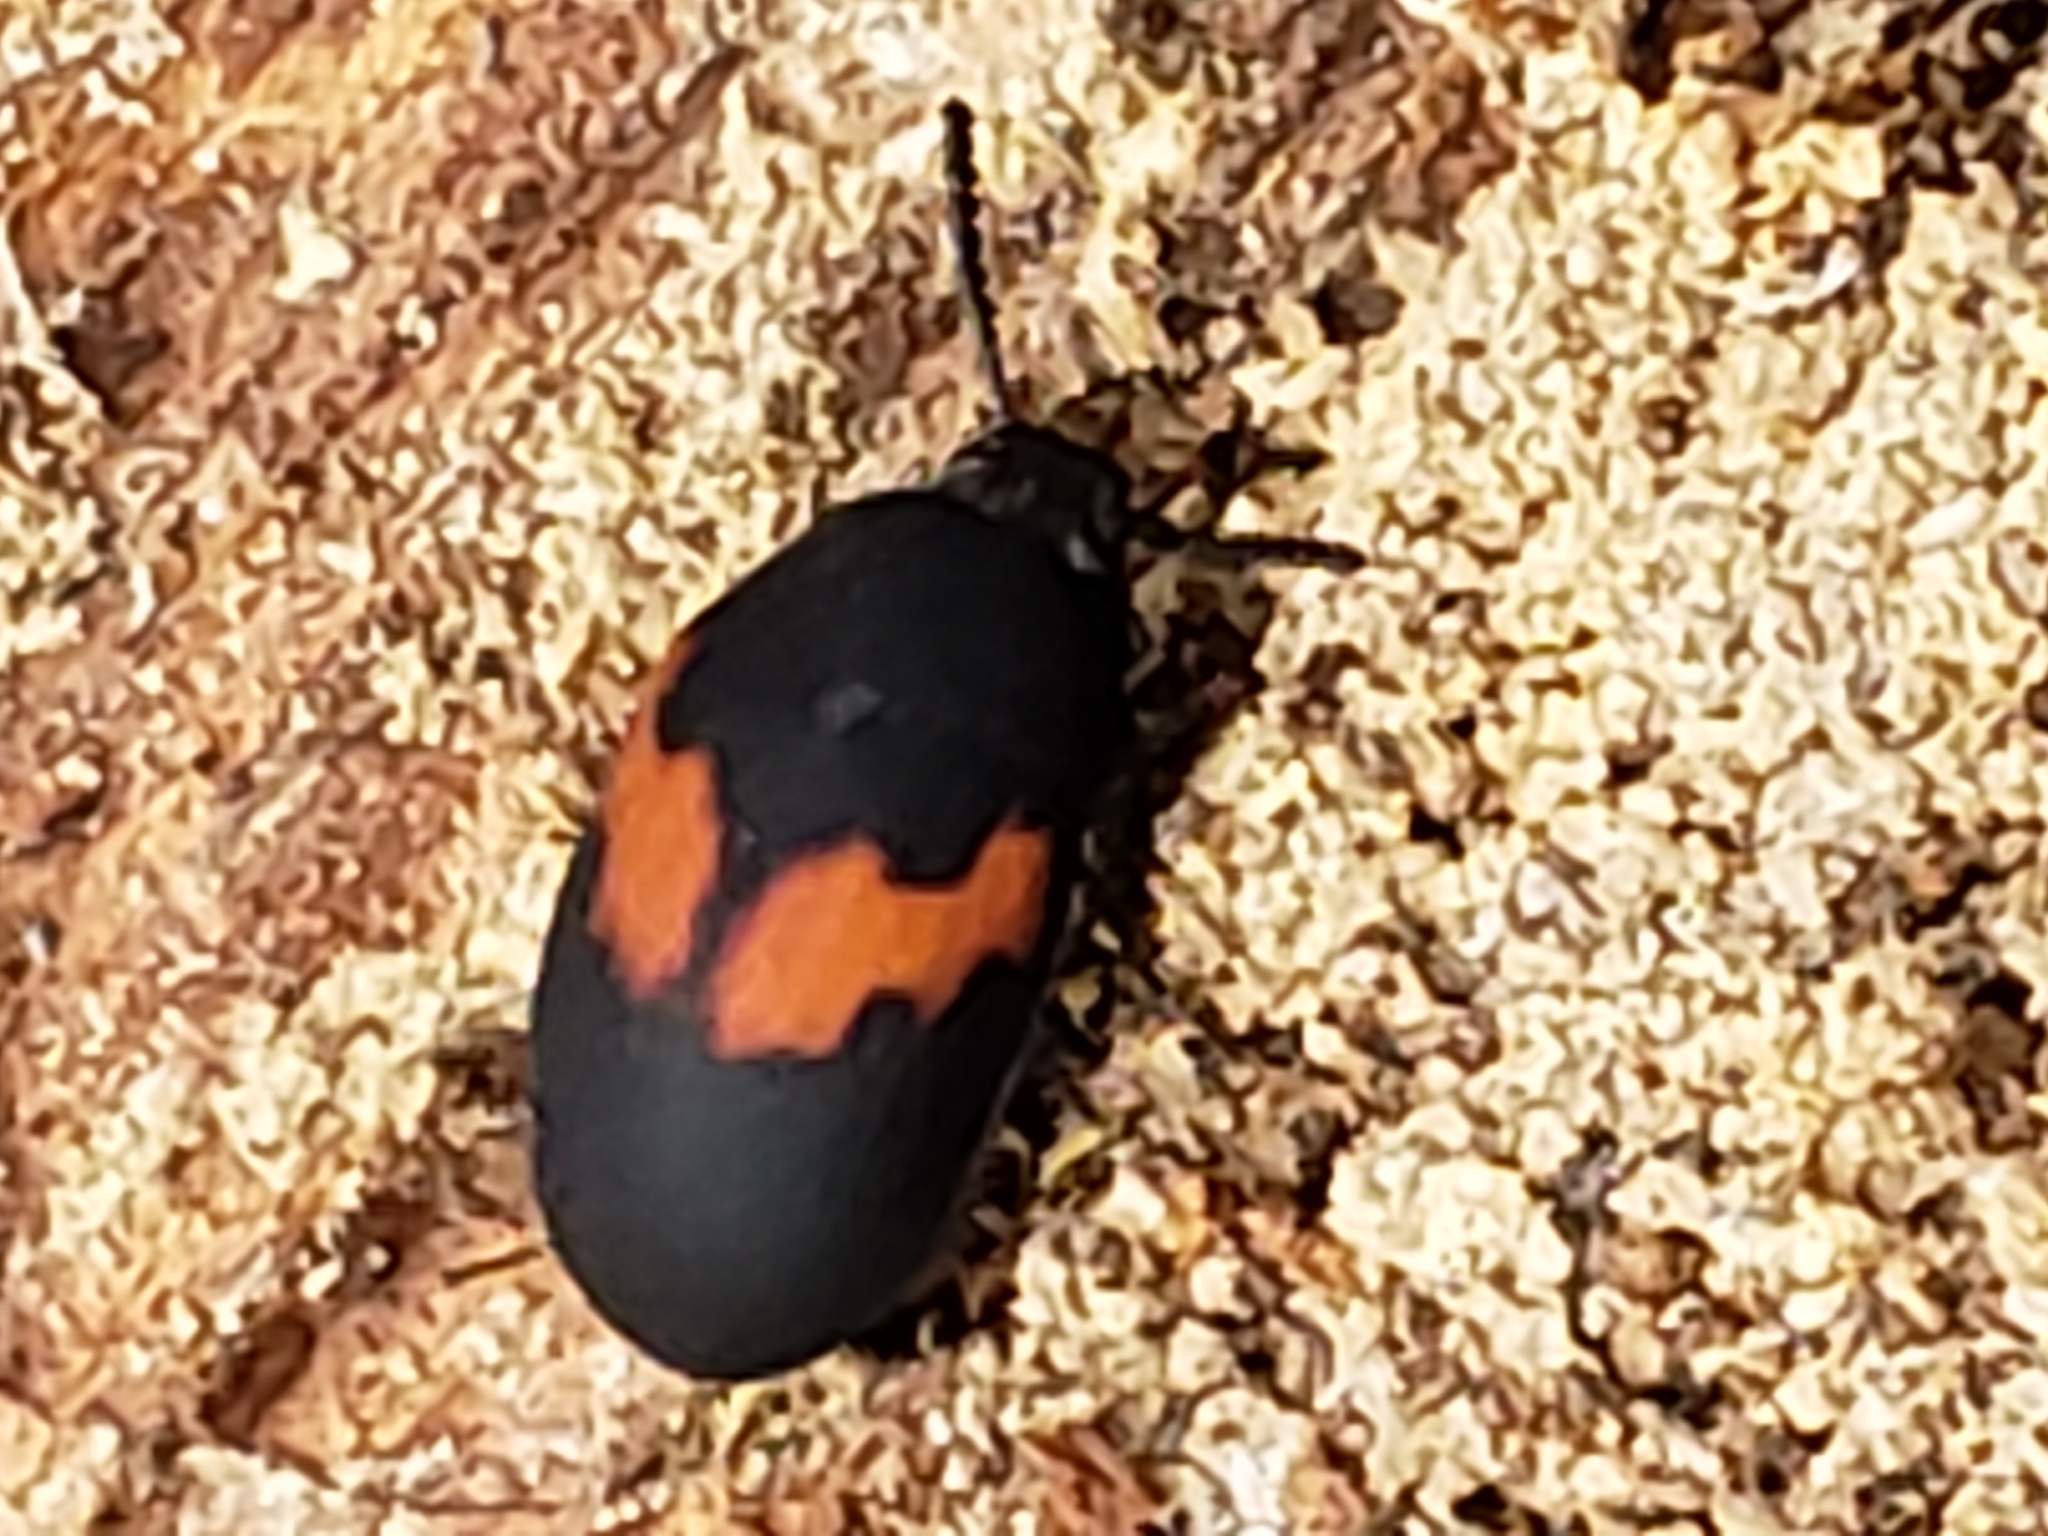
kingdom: Animalia
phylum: Arthropoda
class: Insecta
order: Coleoptera
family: Tenebrionidae
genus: Platydema
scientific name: Platydema elliptica
